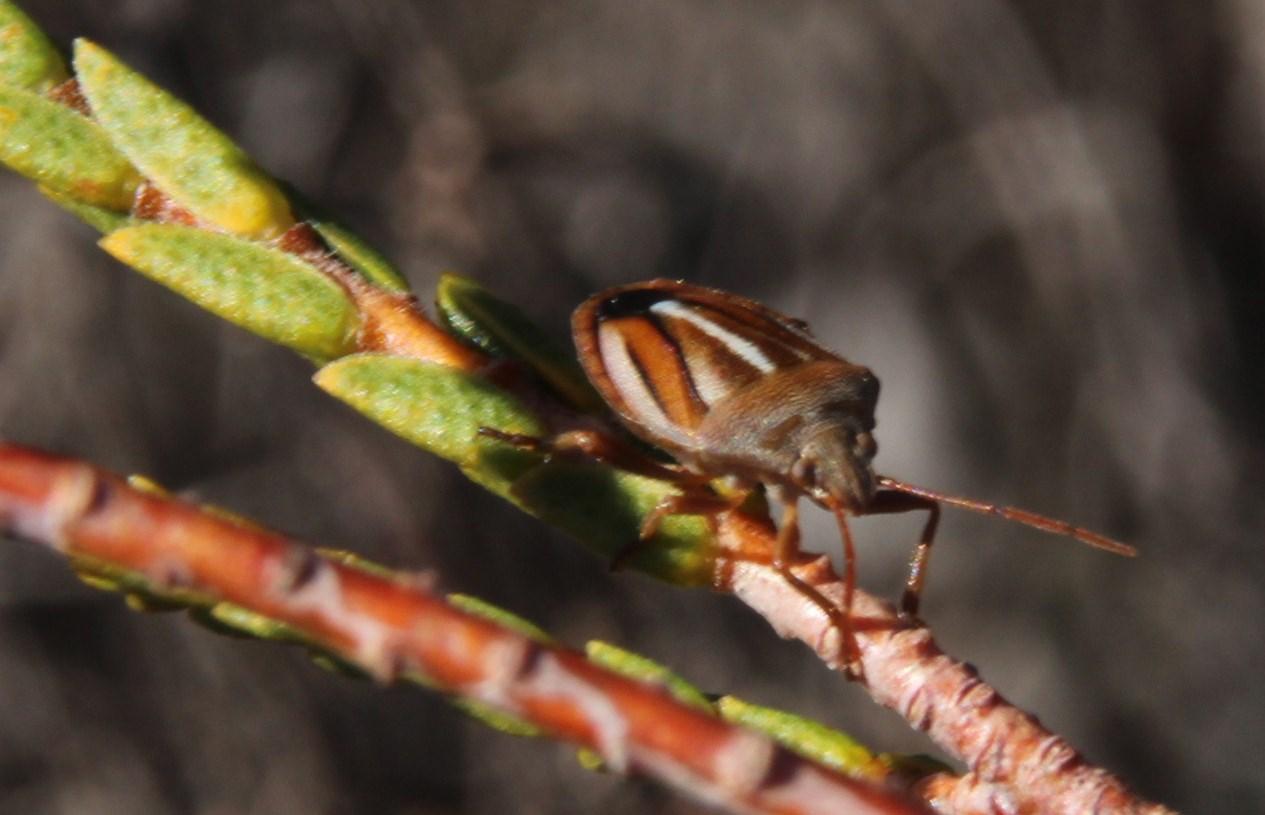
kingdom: Animalia
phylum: Arthropoda
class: Insecta
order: Hemiptera
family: Pentatomidae
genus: Theloris
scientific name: Theloris costata
